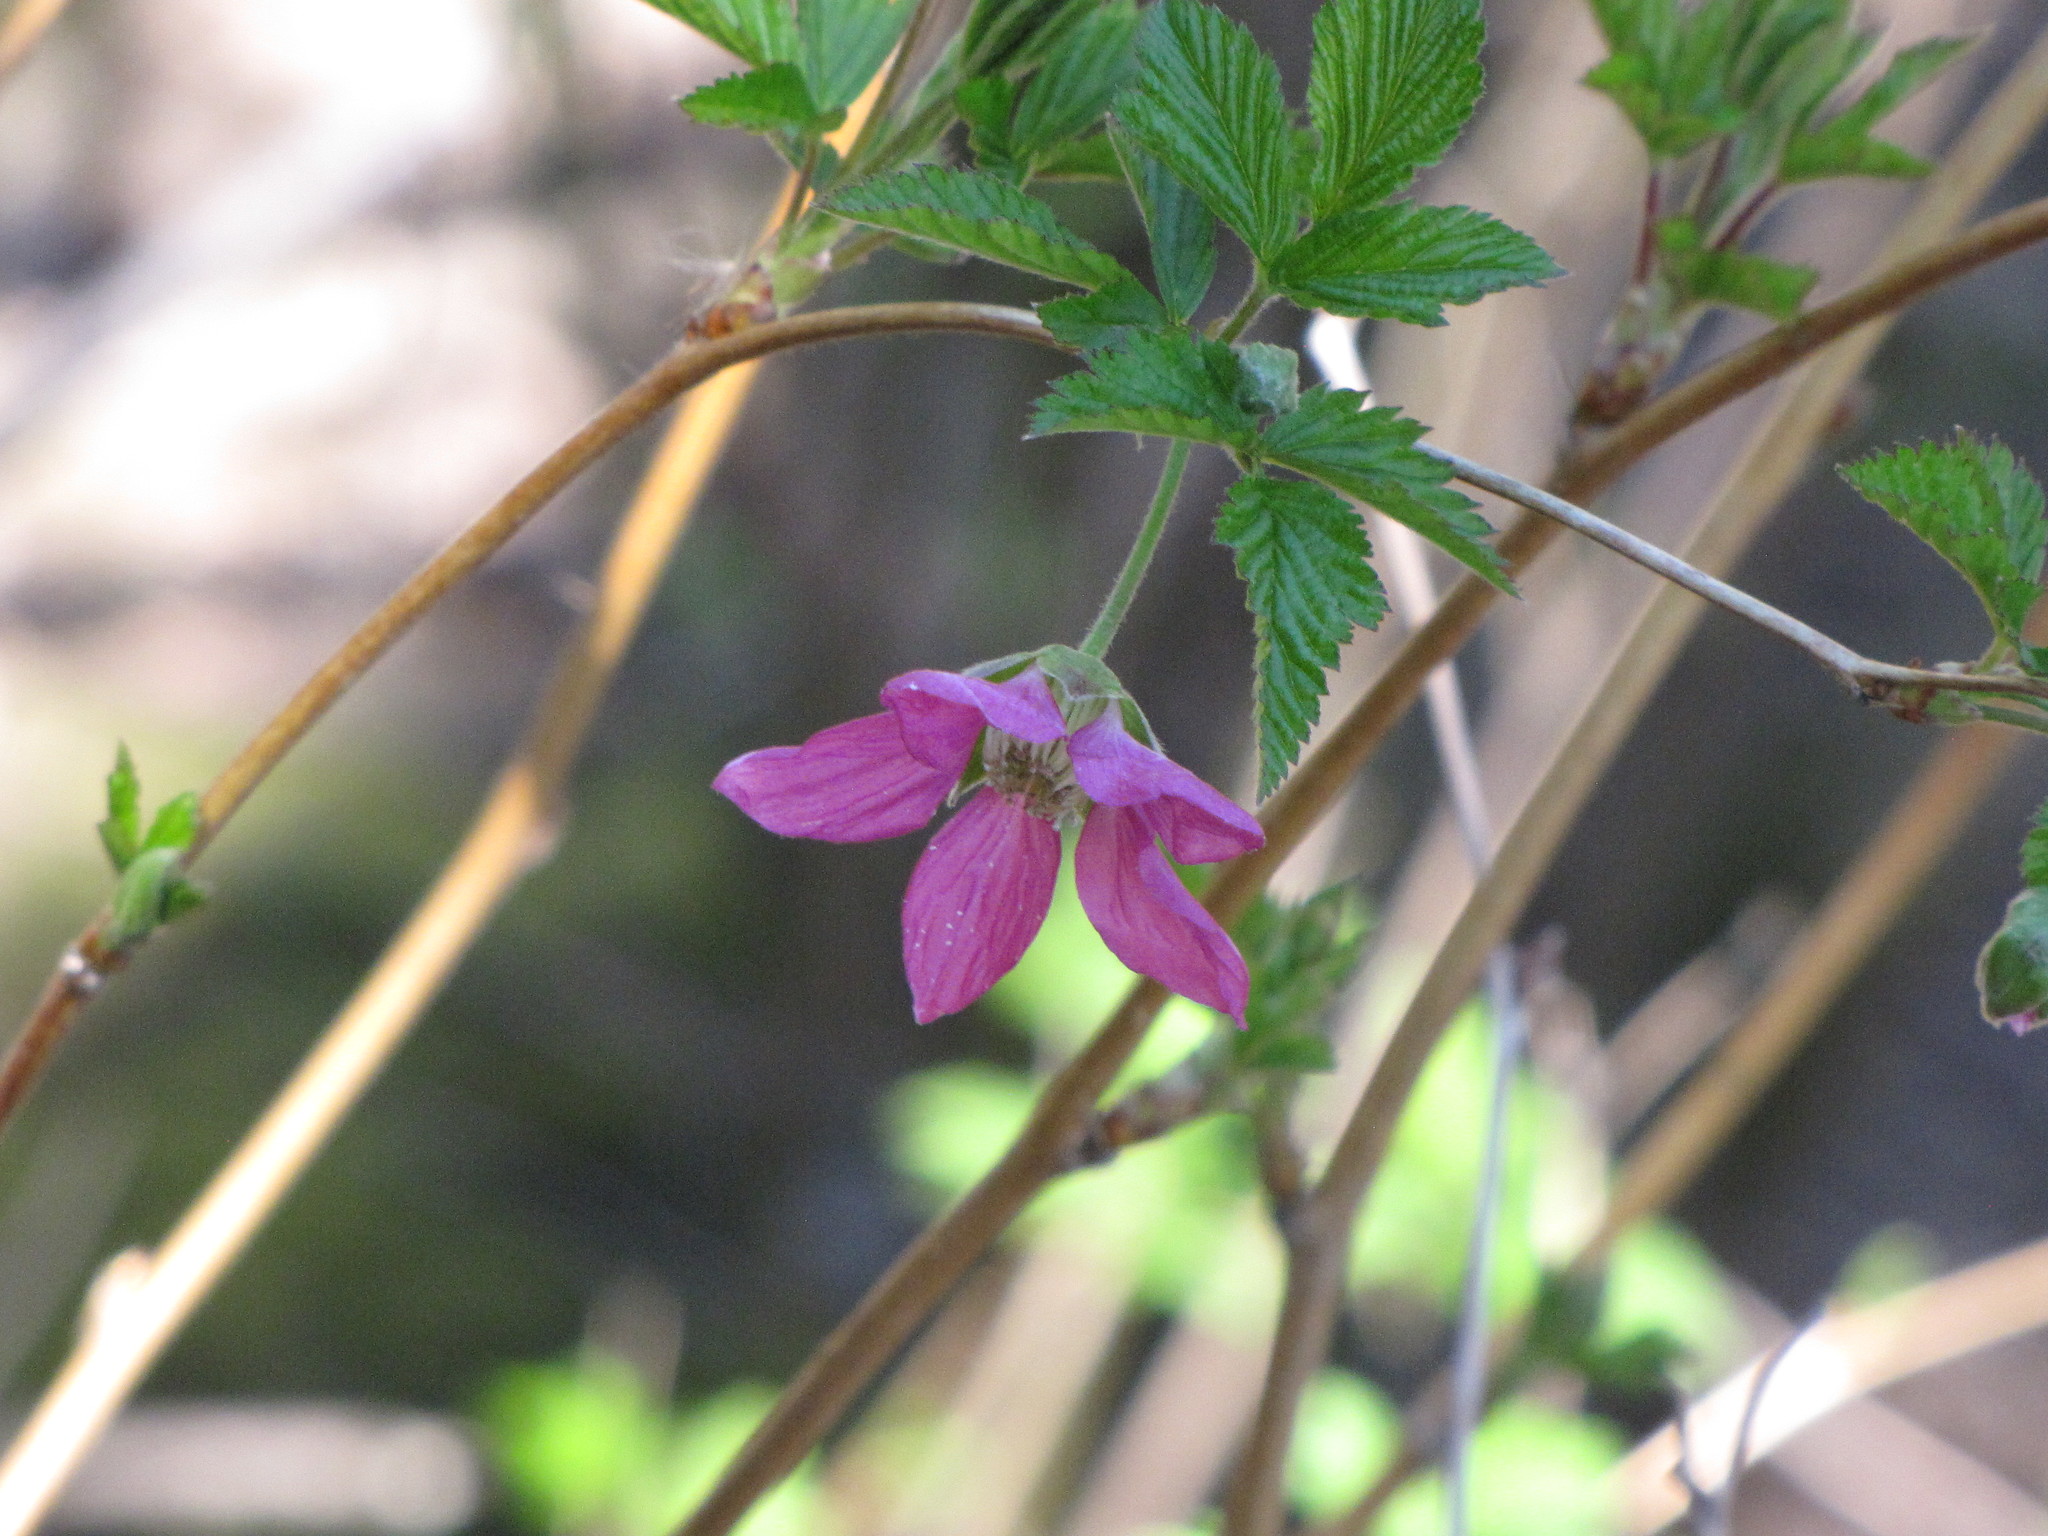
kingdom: Plantae
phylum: Tracheophyta
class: Magnoliopsida
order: Rosales
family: Rosaceae
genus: Rubus
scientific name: Rubus spectabilis
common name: Salmonberry
